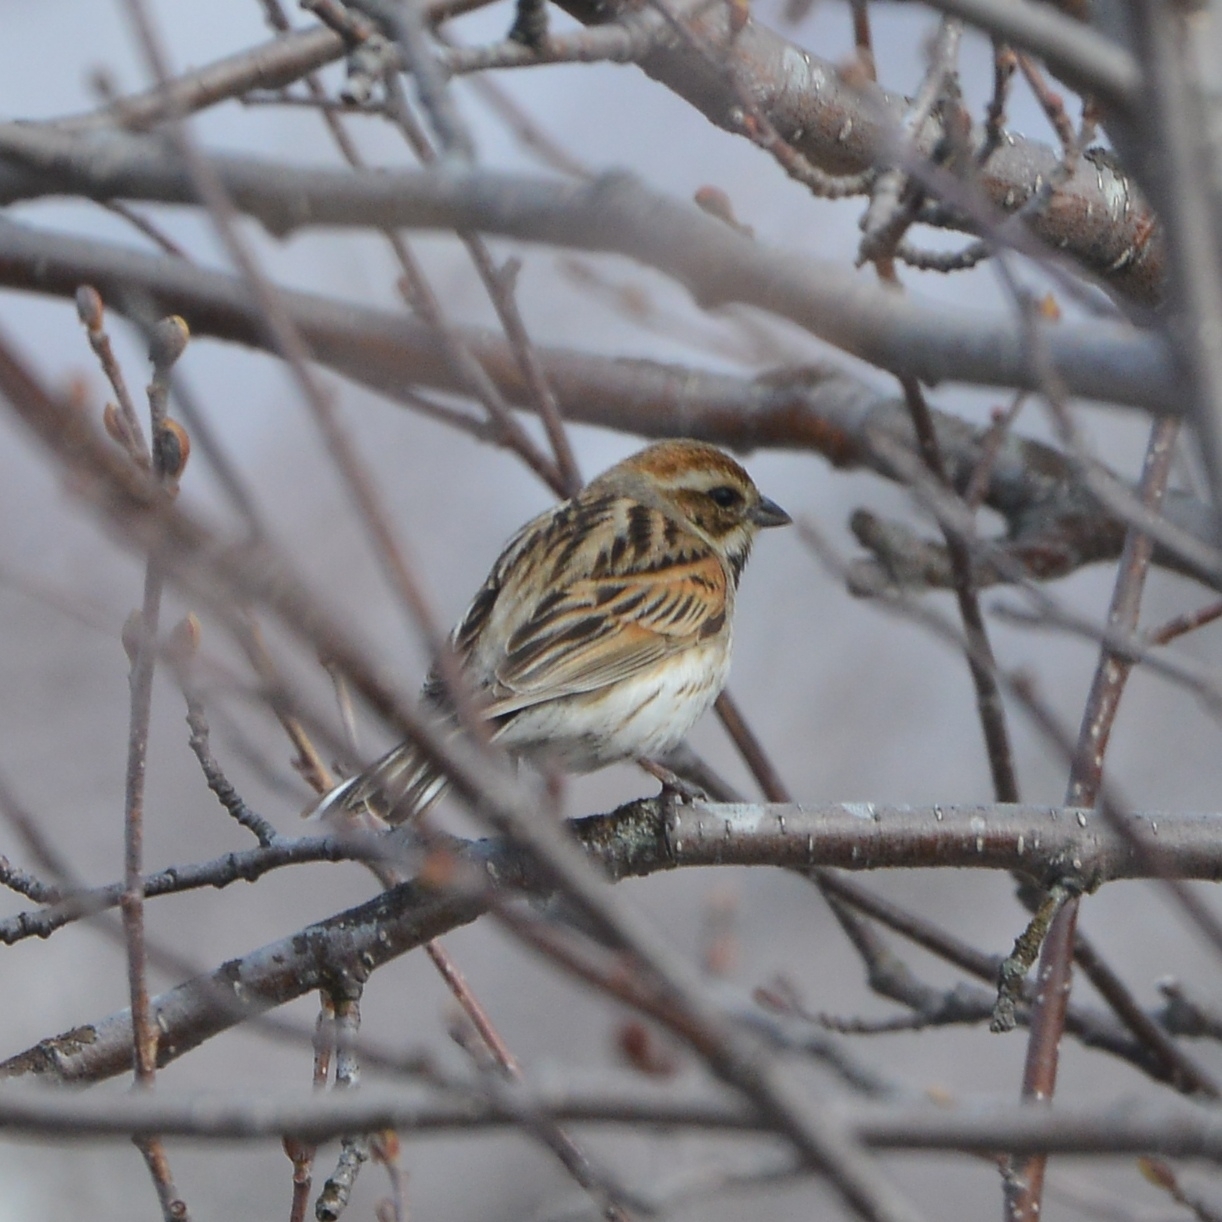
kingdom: Animalia
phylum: Chordata
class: Aves
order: Passeriformes
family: Emberizidae
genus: Emberiza
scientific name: Emberiza pallasi
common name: Pallas's reed bunting
